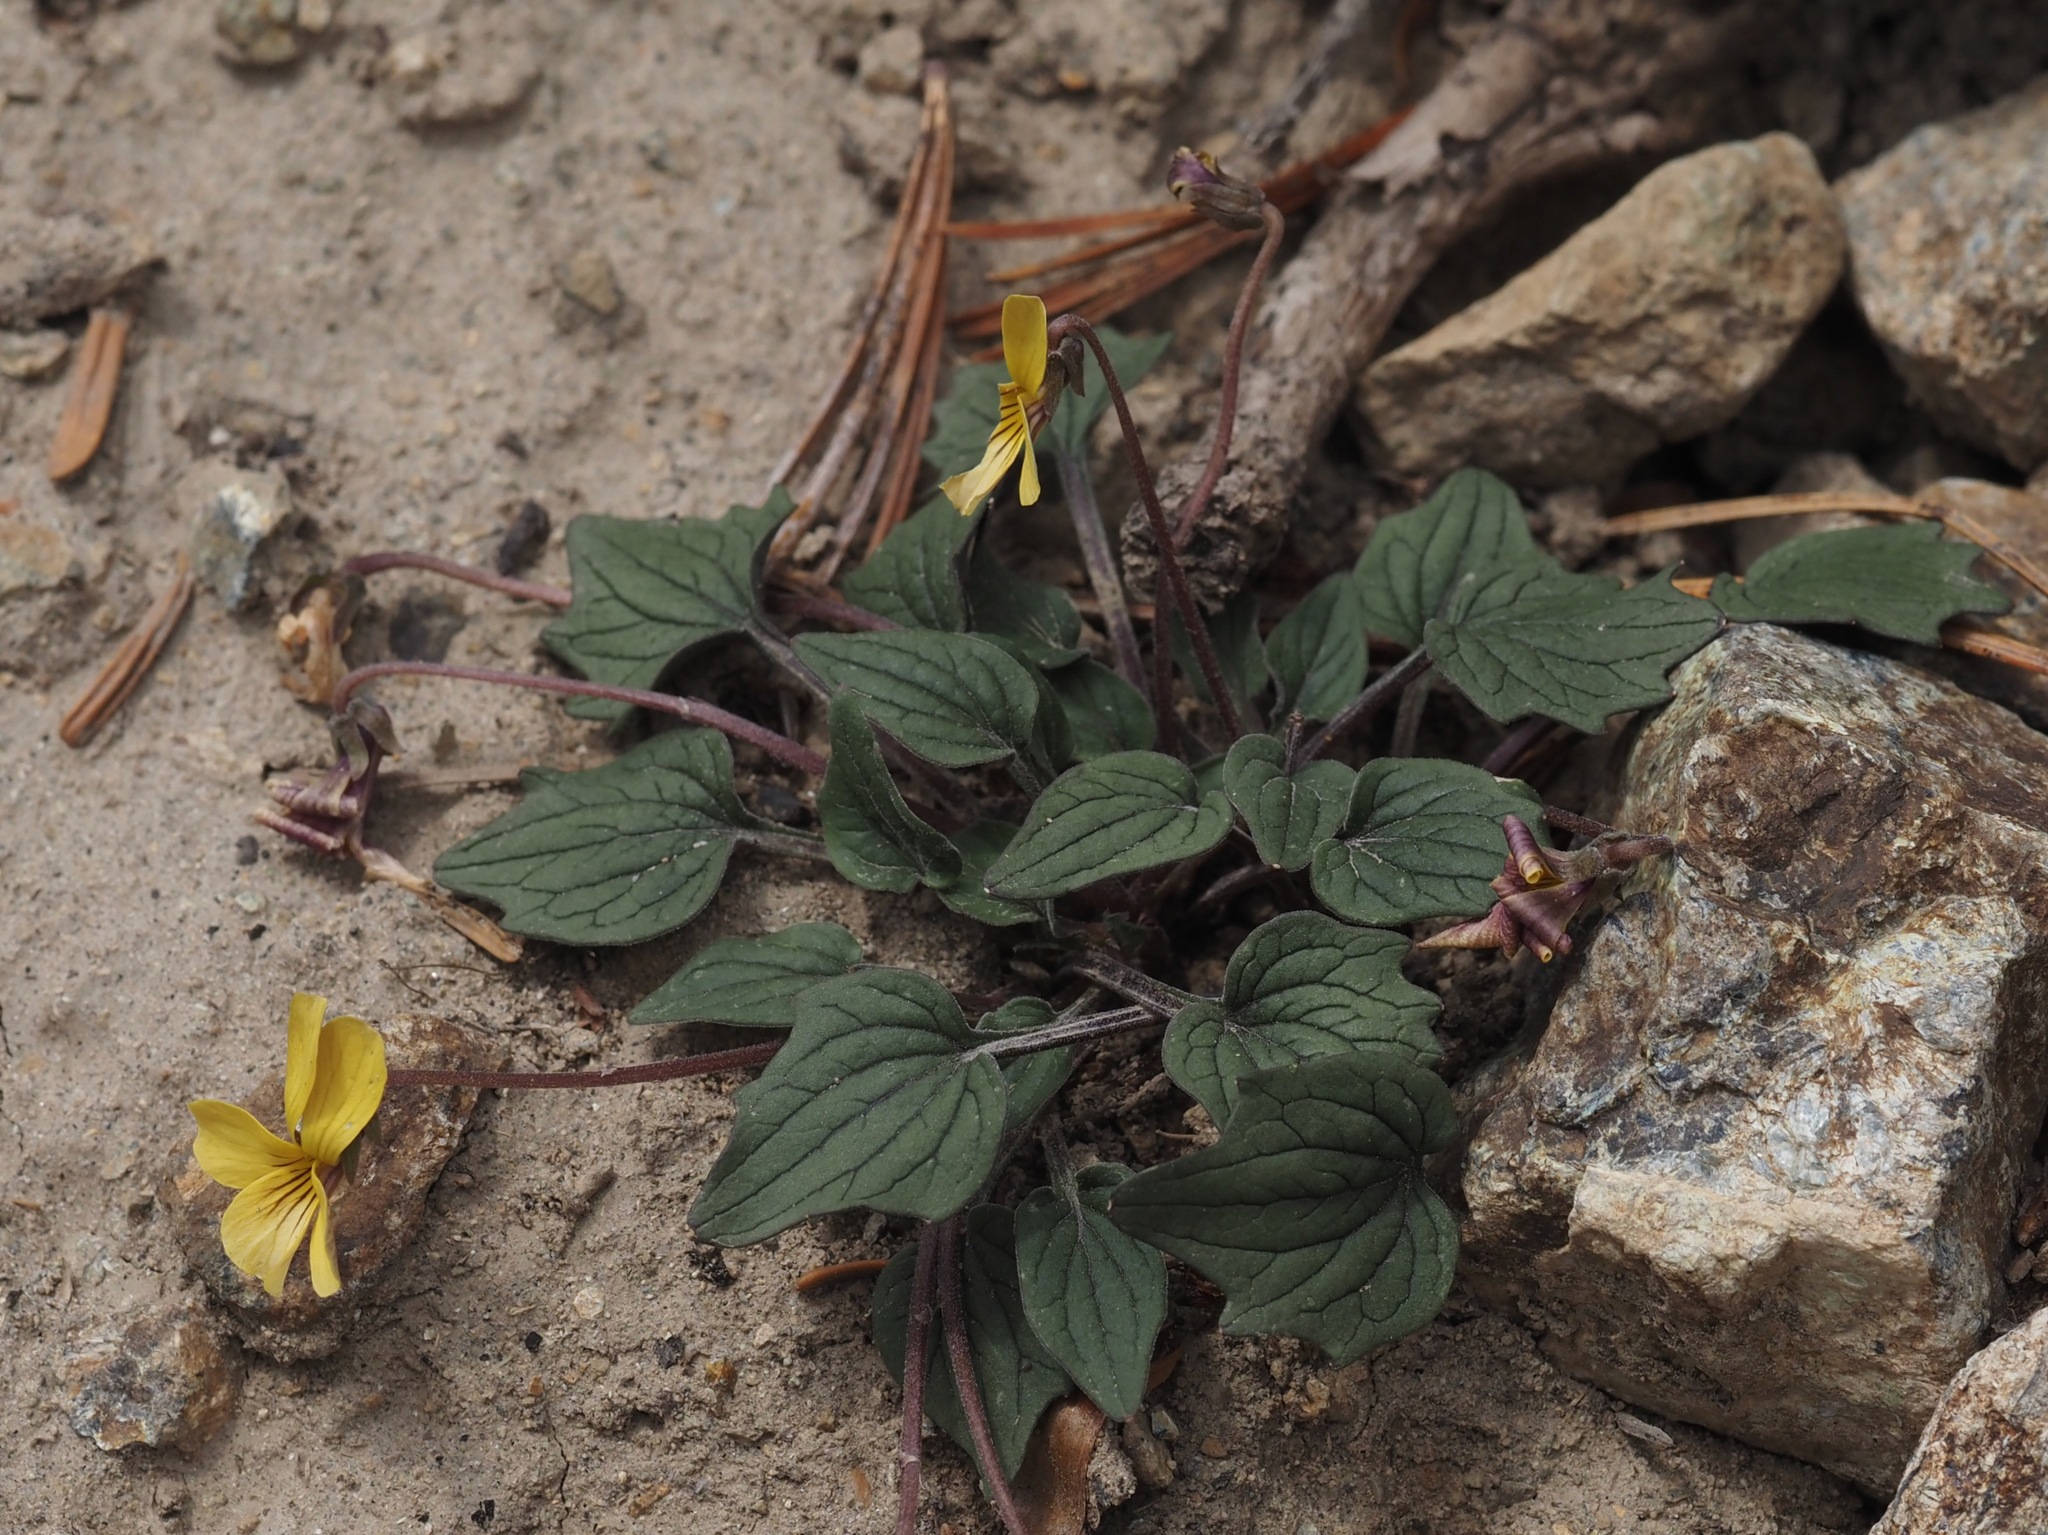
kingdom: Plantae
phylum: Tracheophyta
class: Magnoliopsida
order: Malpighiales
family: Violaceae
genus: Viola
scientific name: Viola purpurea
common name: Pine violet
